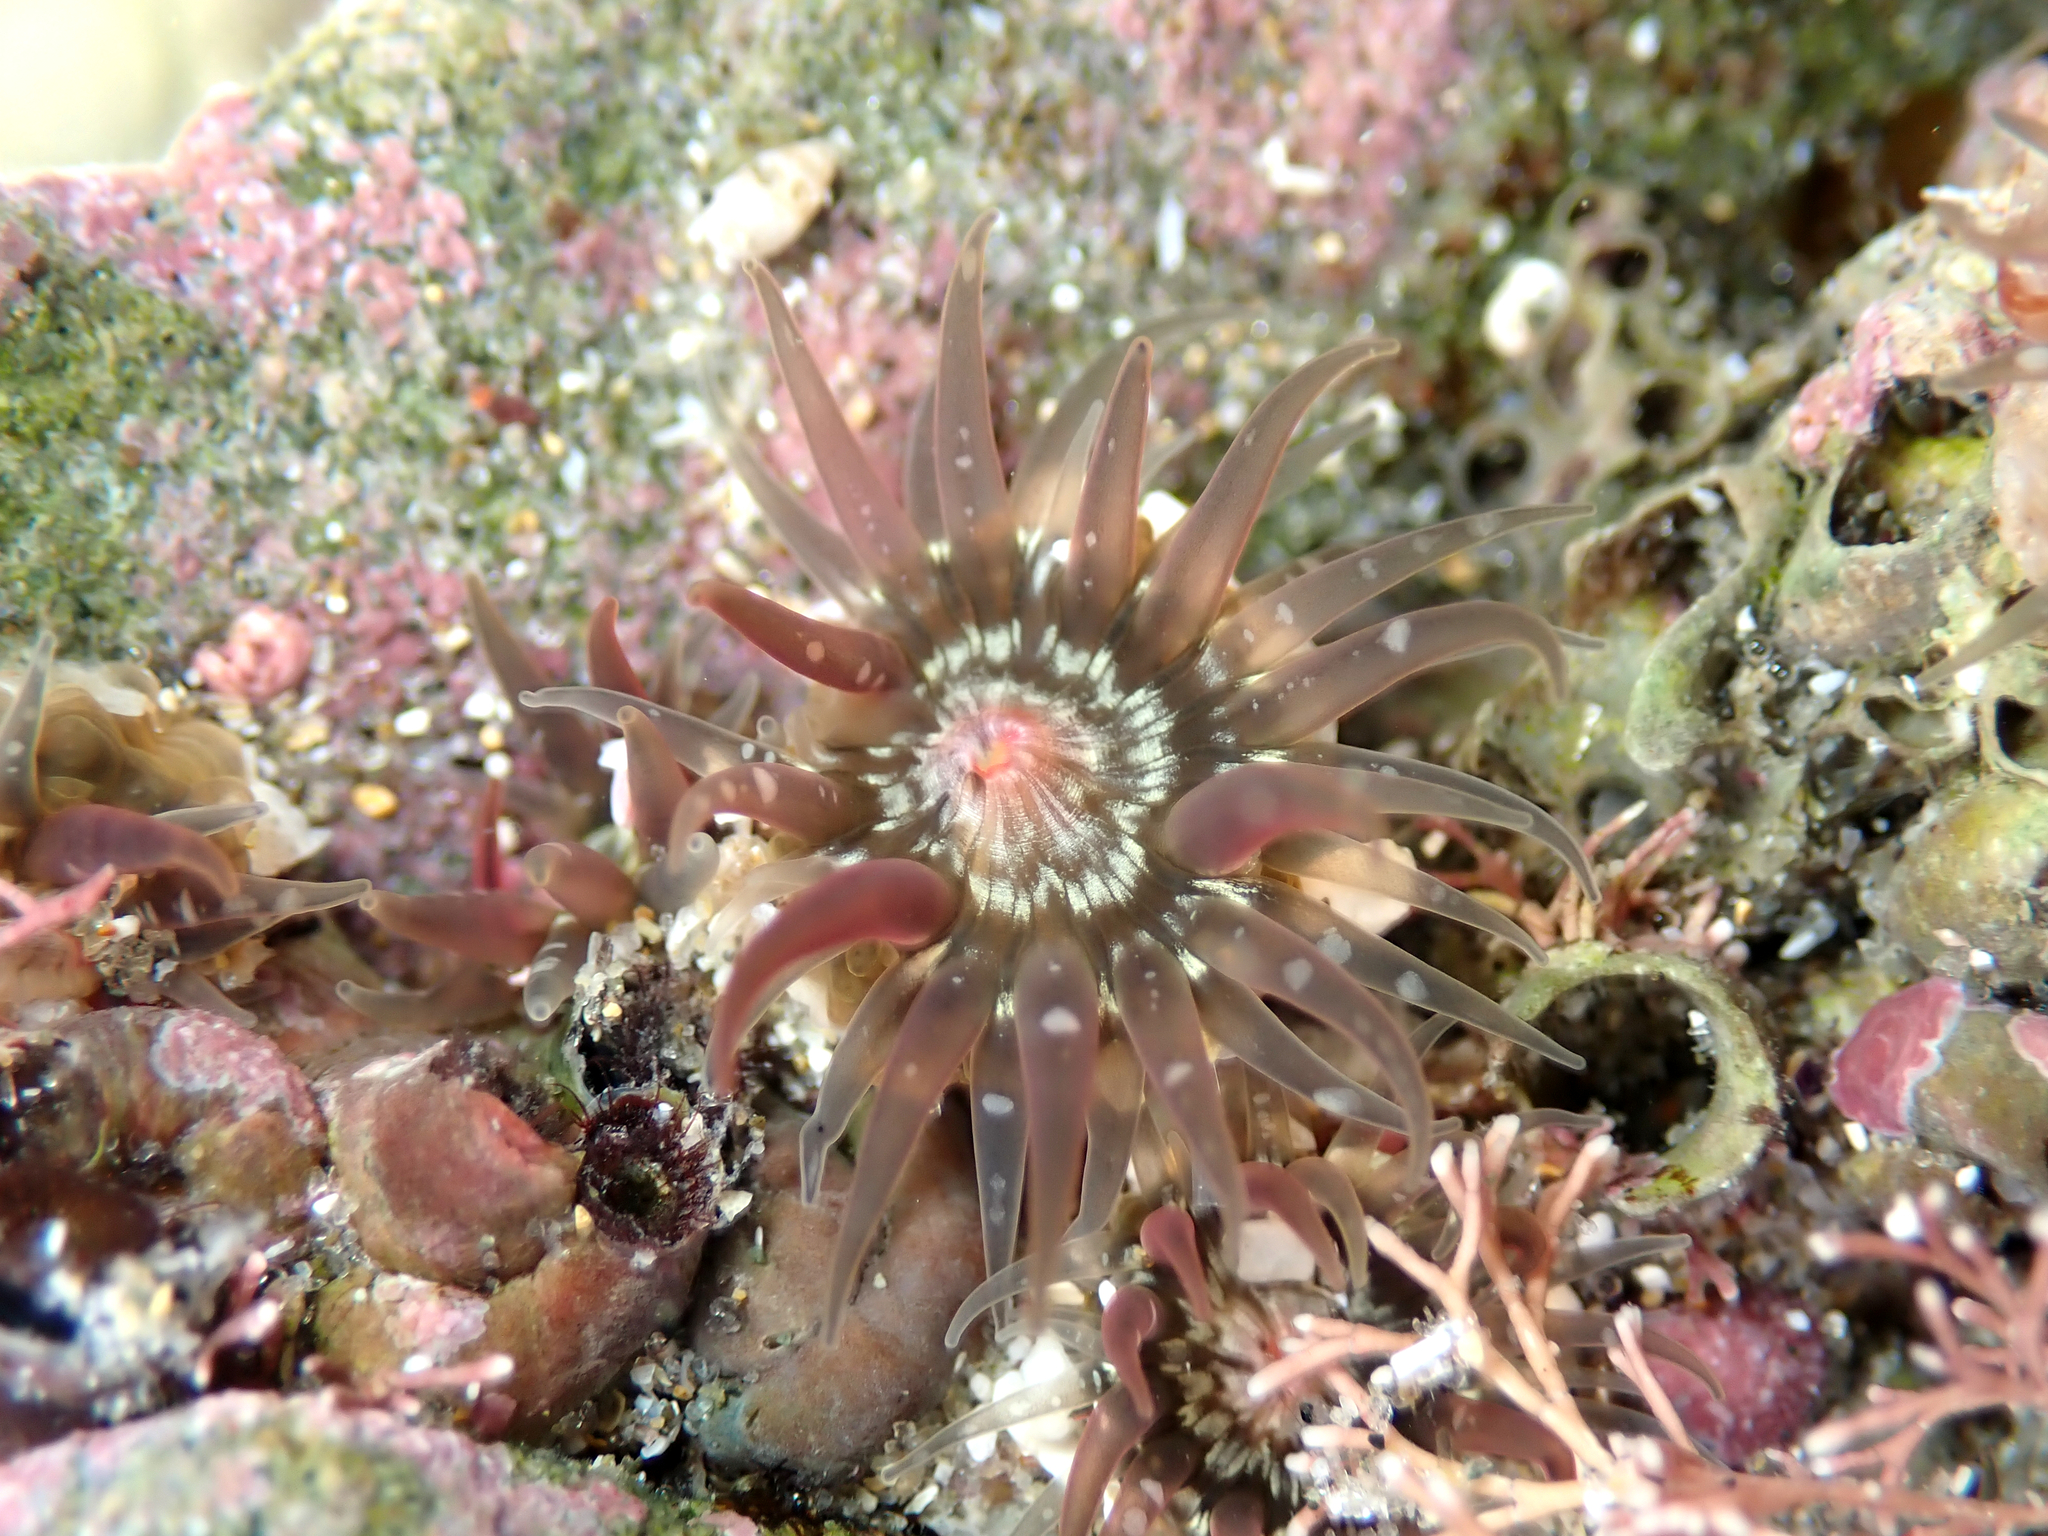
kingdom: Animalia
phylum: Cnidaria
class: Anthozoa
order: Actiniaria
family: Actiniidae
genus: Anthopleura
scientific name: Anthopleura minima
